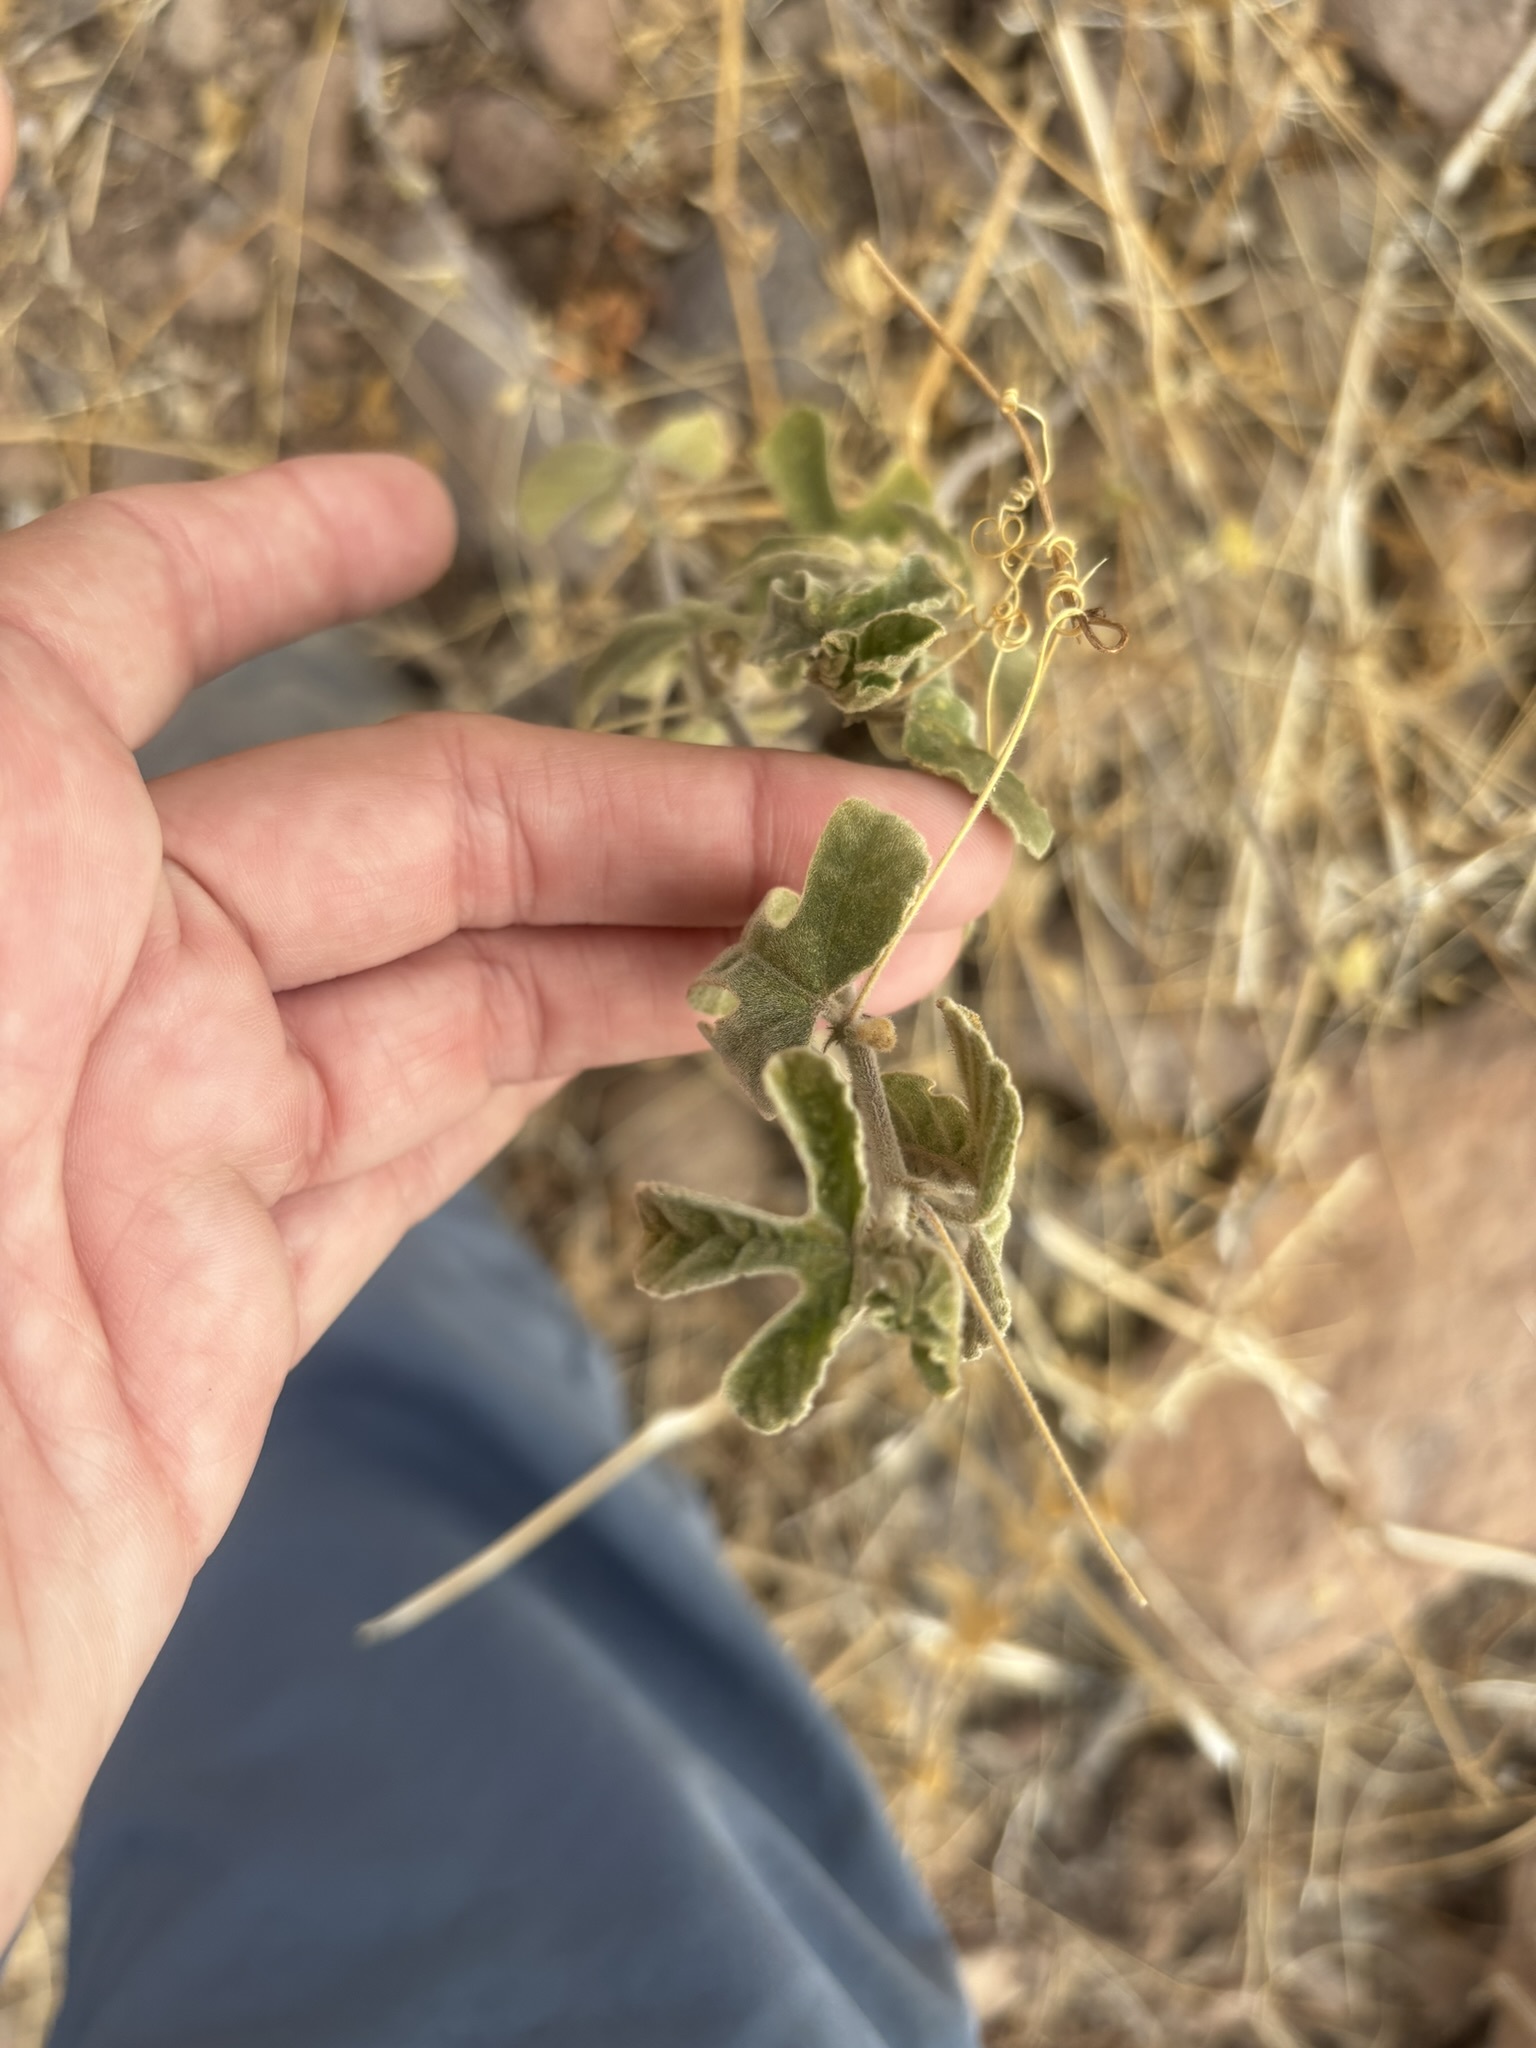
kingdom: Plantae
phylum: Tracheophyta
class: Magnoliopsida
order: Malpighiales
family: Passifloraceae
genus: Passiflora
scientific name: Passiflora palmeri
